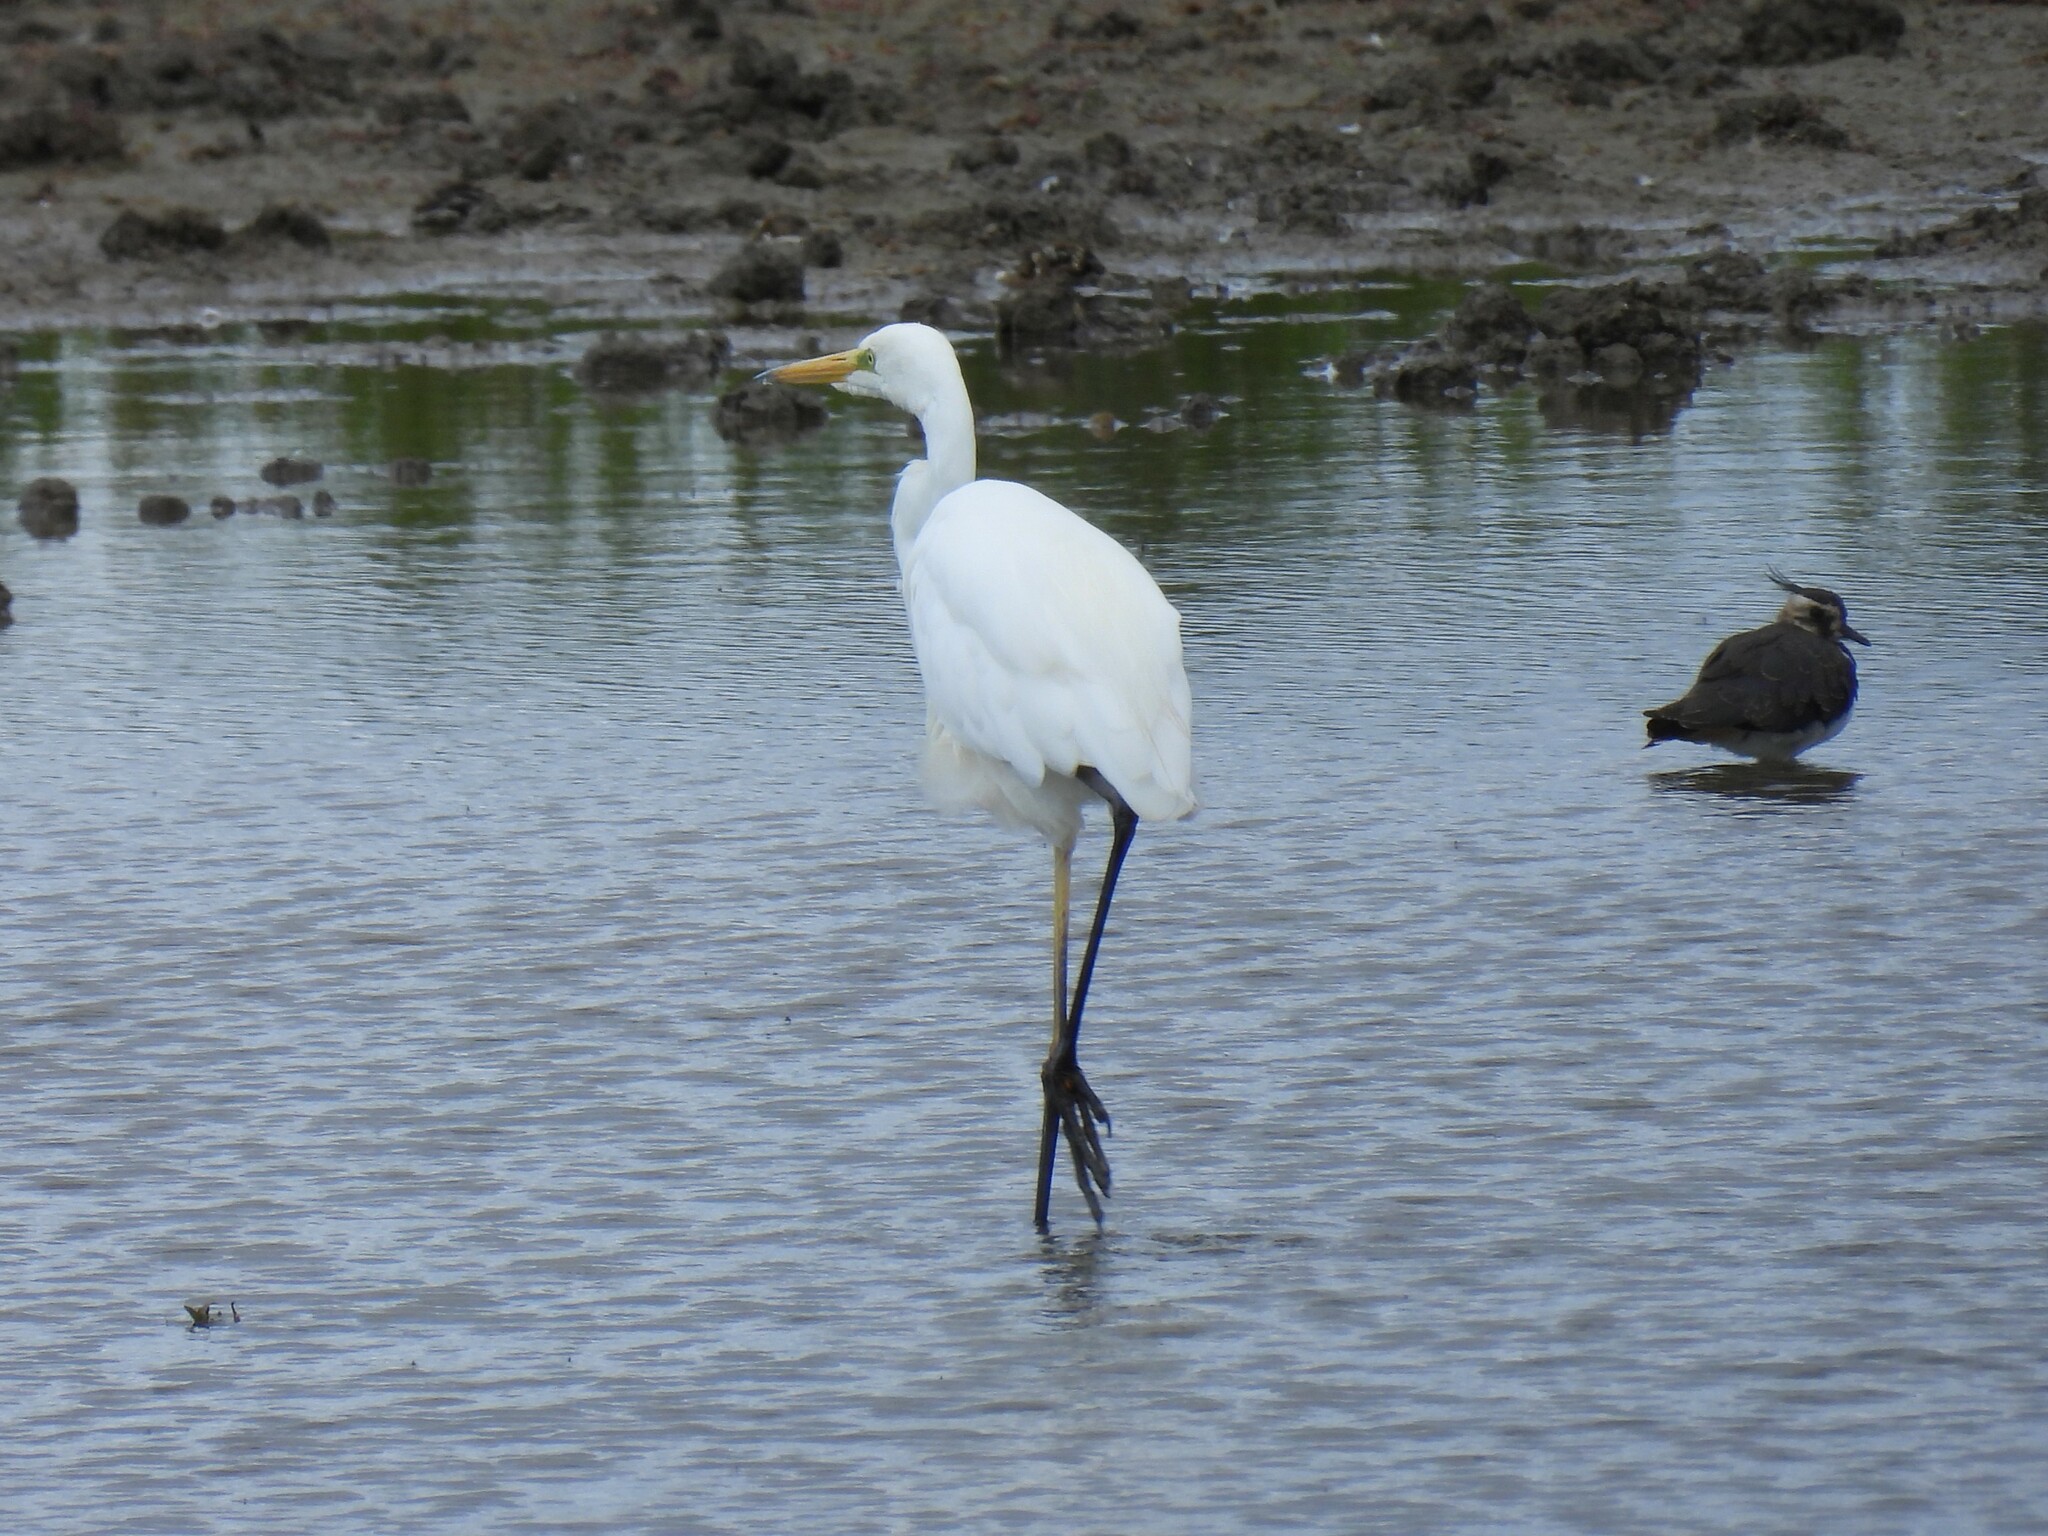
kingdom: Animalia
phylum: Chordata
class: Aves
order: Pelecaniformes
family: Ardeidae
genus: Ardea
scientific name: Ardea alba
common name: Great egret
